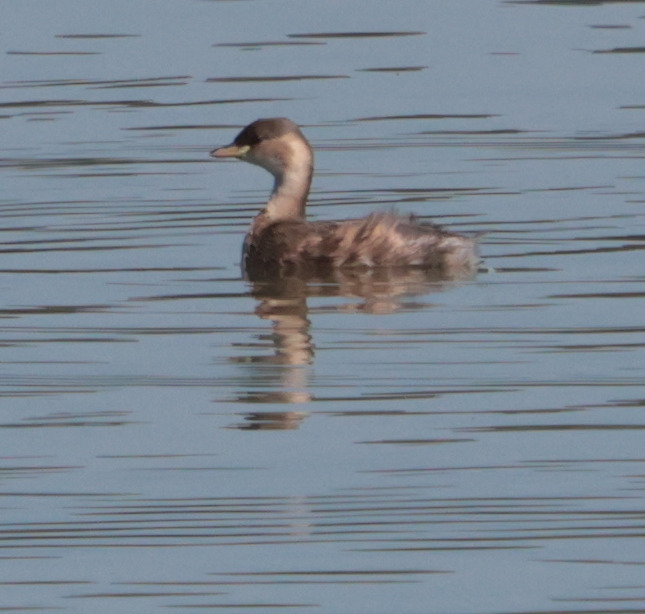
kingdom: Animalia
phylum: Chordata
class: Aves
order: Podicipediformes
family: Podicipedidae
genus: Tachybaptus
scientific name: Tachybaptus ruficollis
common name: Little grebe
